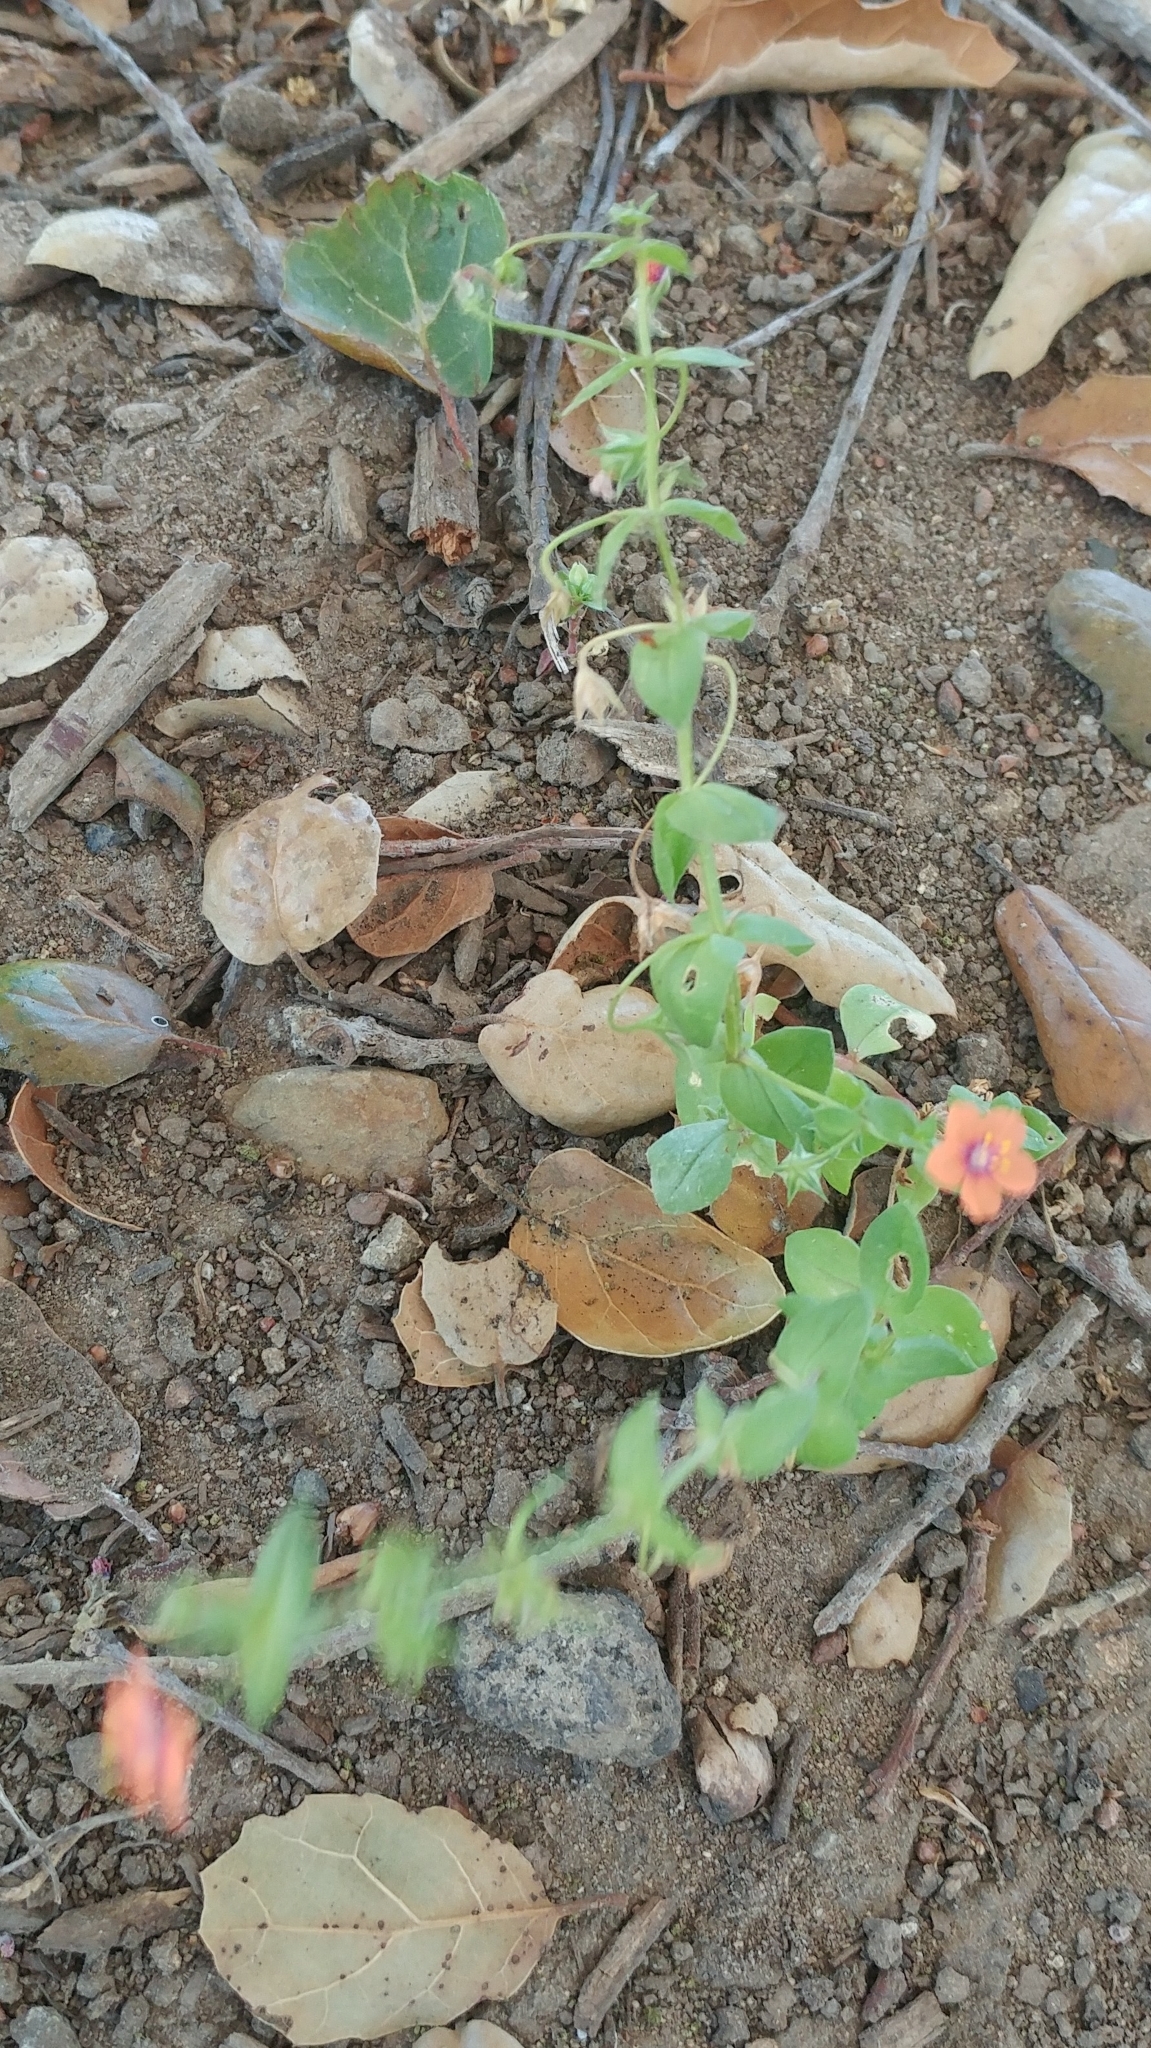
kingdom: Plantae
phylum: Tracheophyta
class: Magnoliopsida
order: Ericales
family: Primulaceae
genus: Lysimachia
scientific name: Lysimachia arvensis
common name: Scarlet pimpernel
